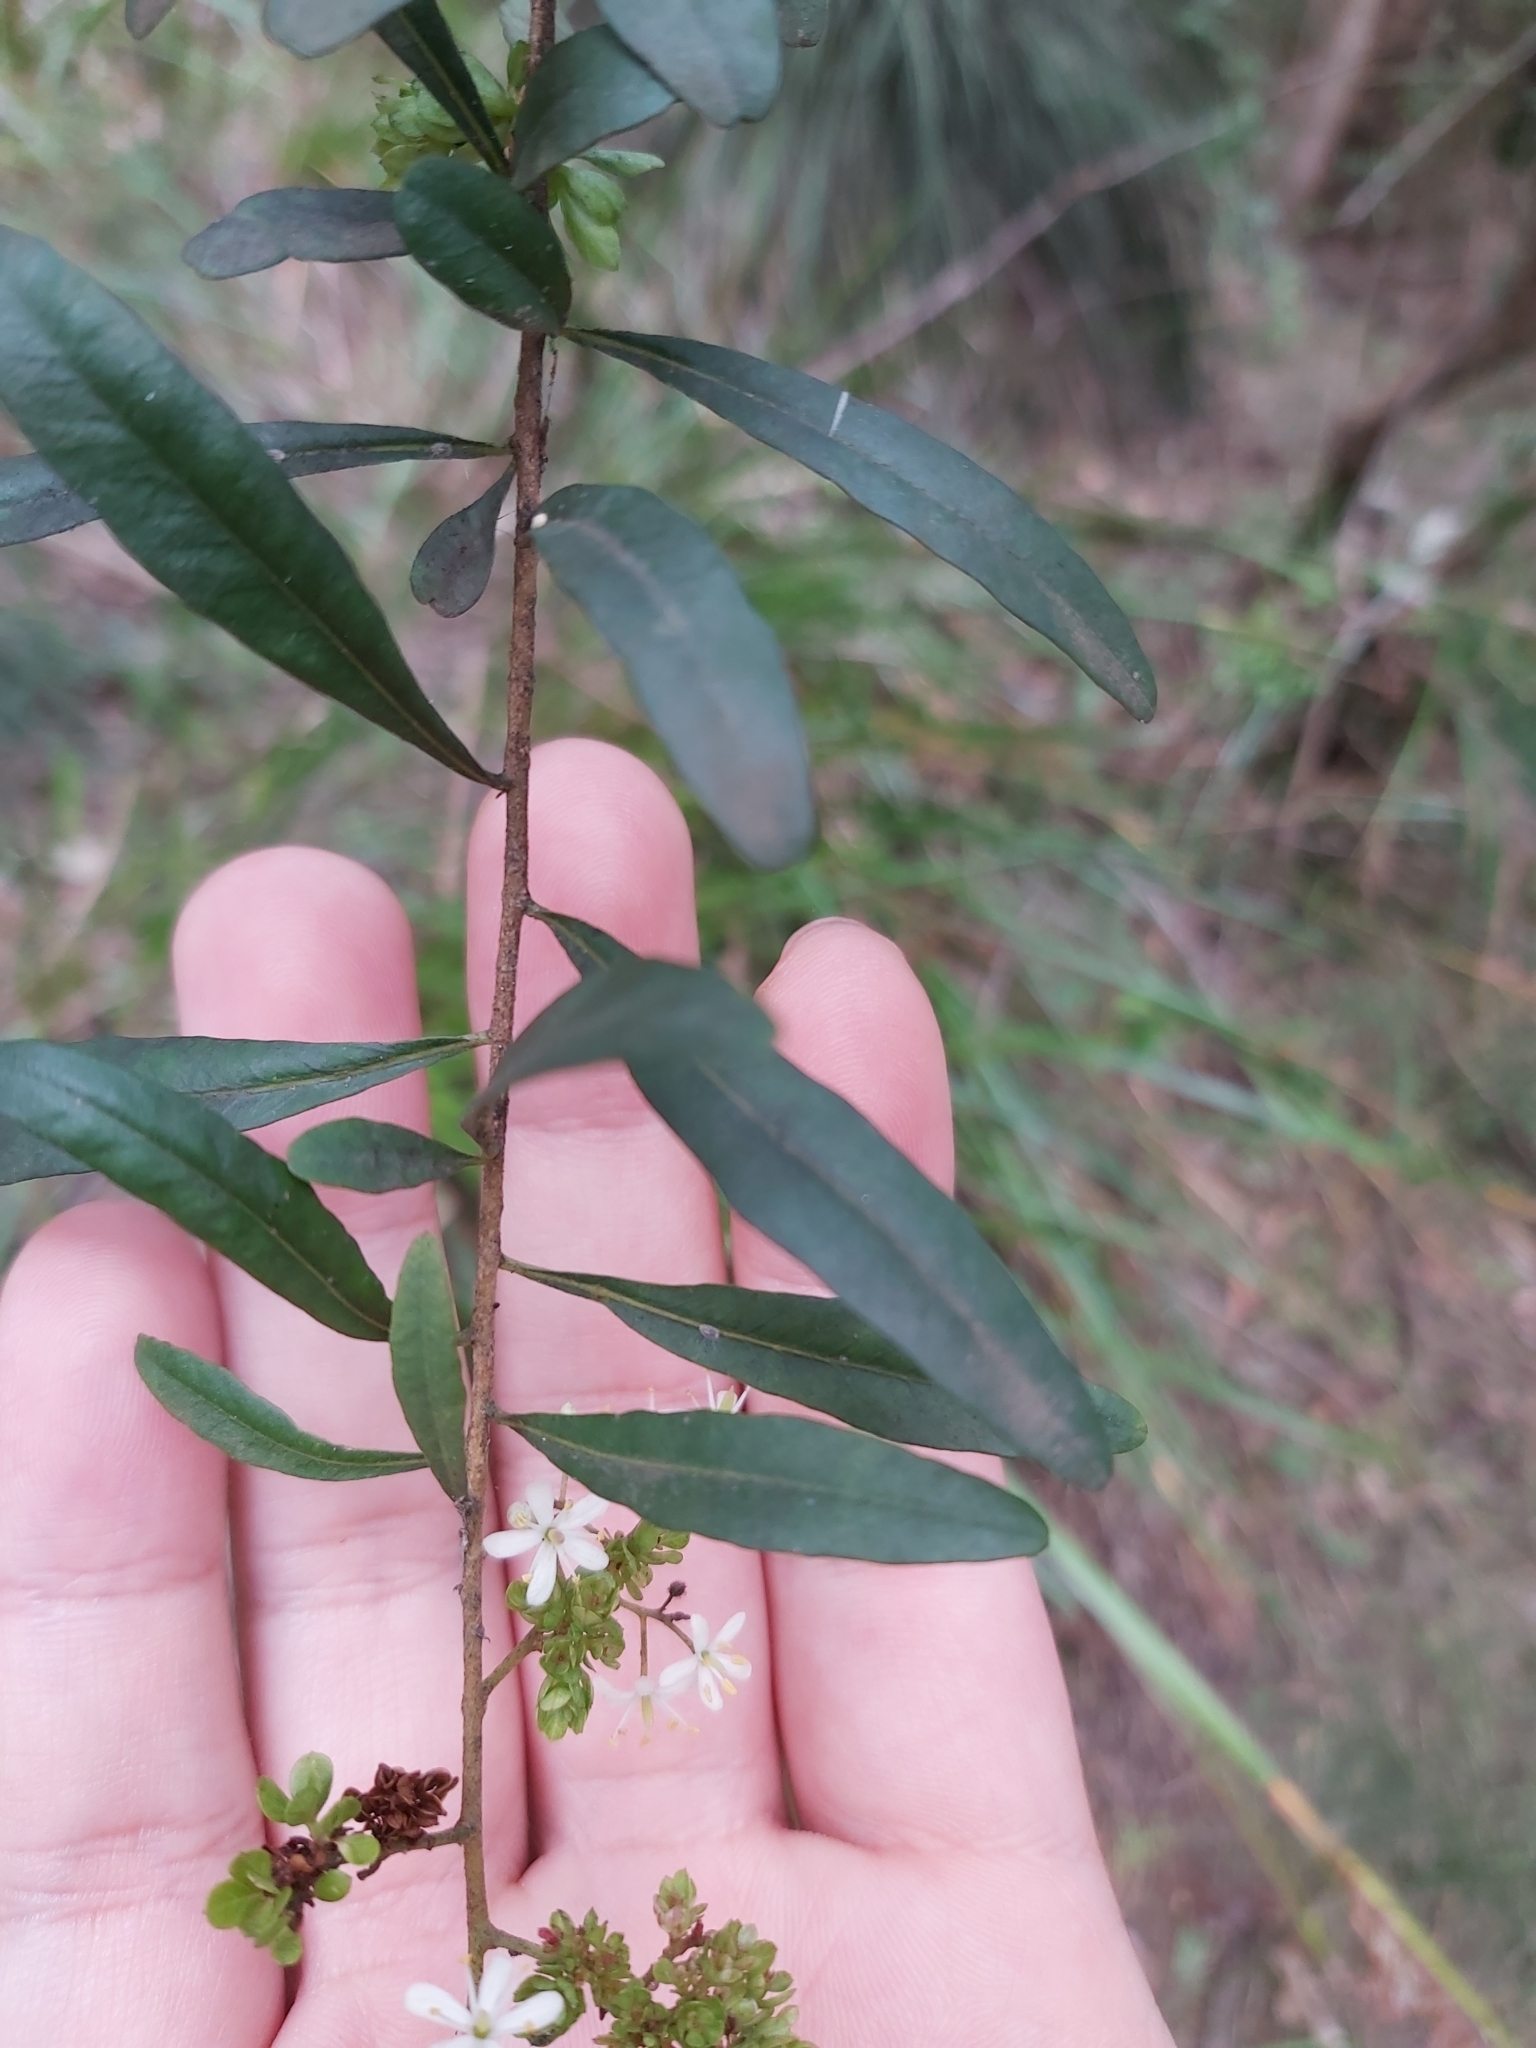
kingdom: Plantae
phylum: Tracheophyta
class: Magnoliopsida
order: Apiales
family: Pittosporaceae
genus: Bursaria
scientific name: Bursaria spinosa
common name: Australian blackthorn
